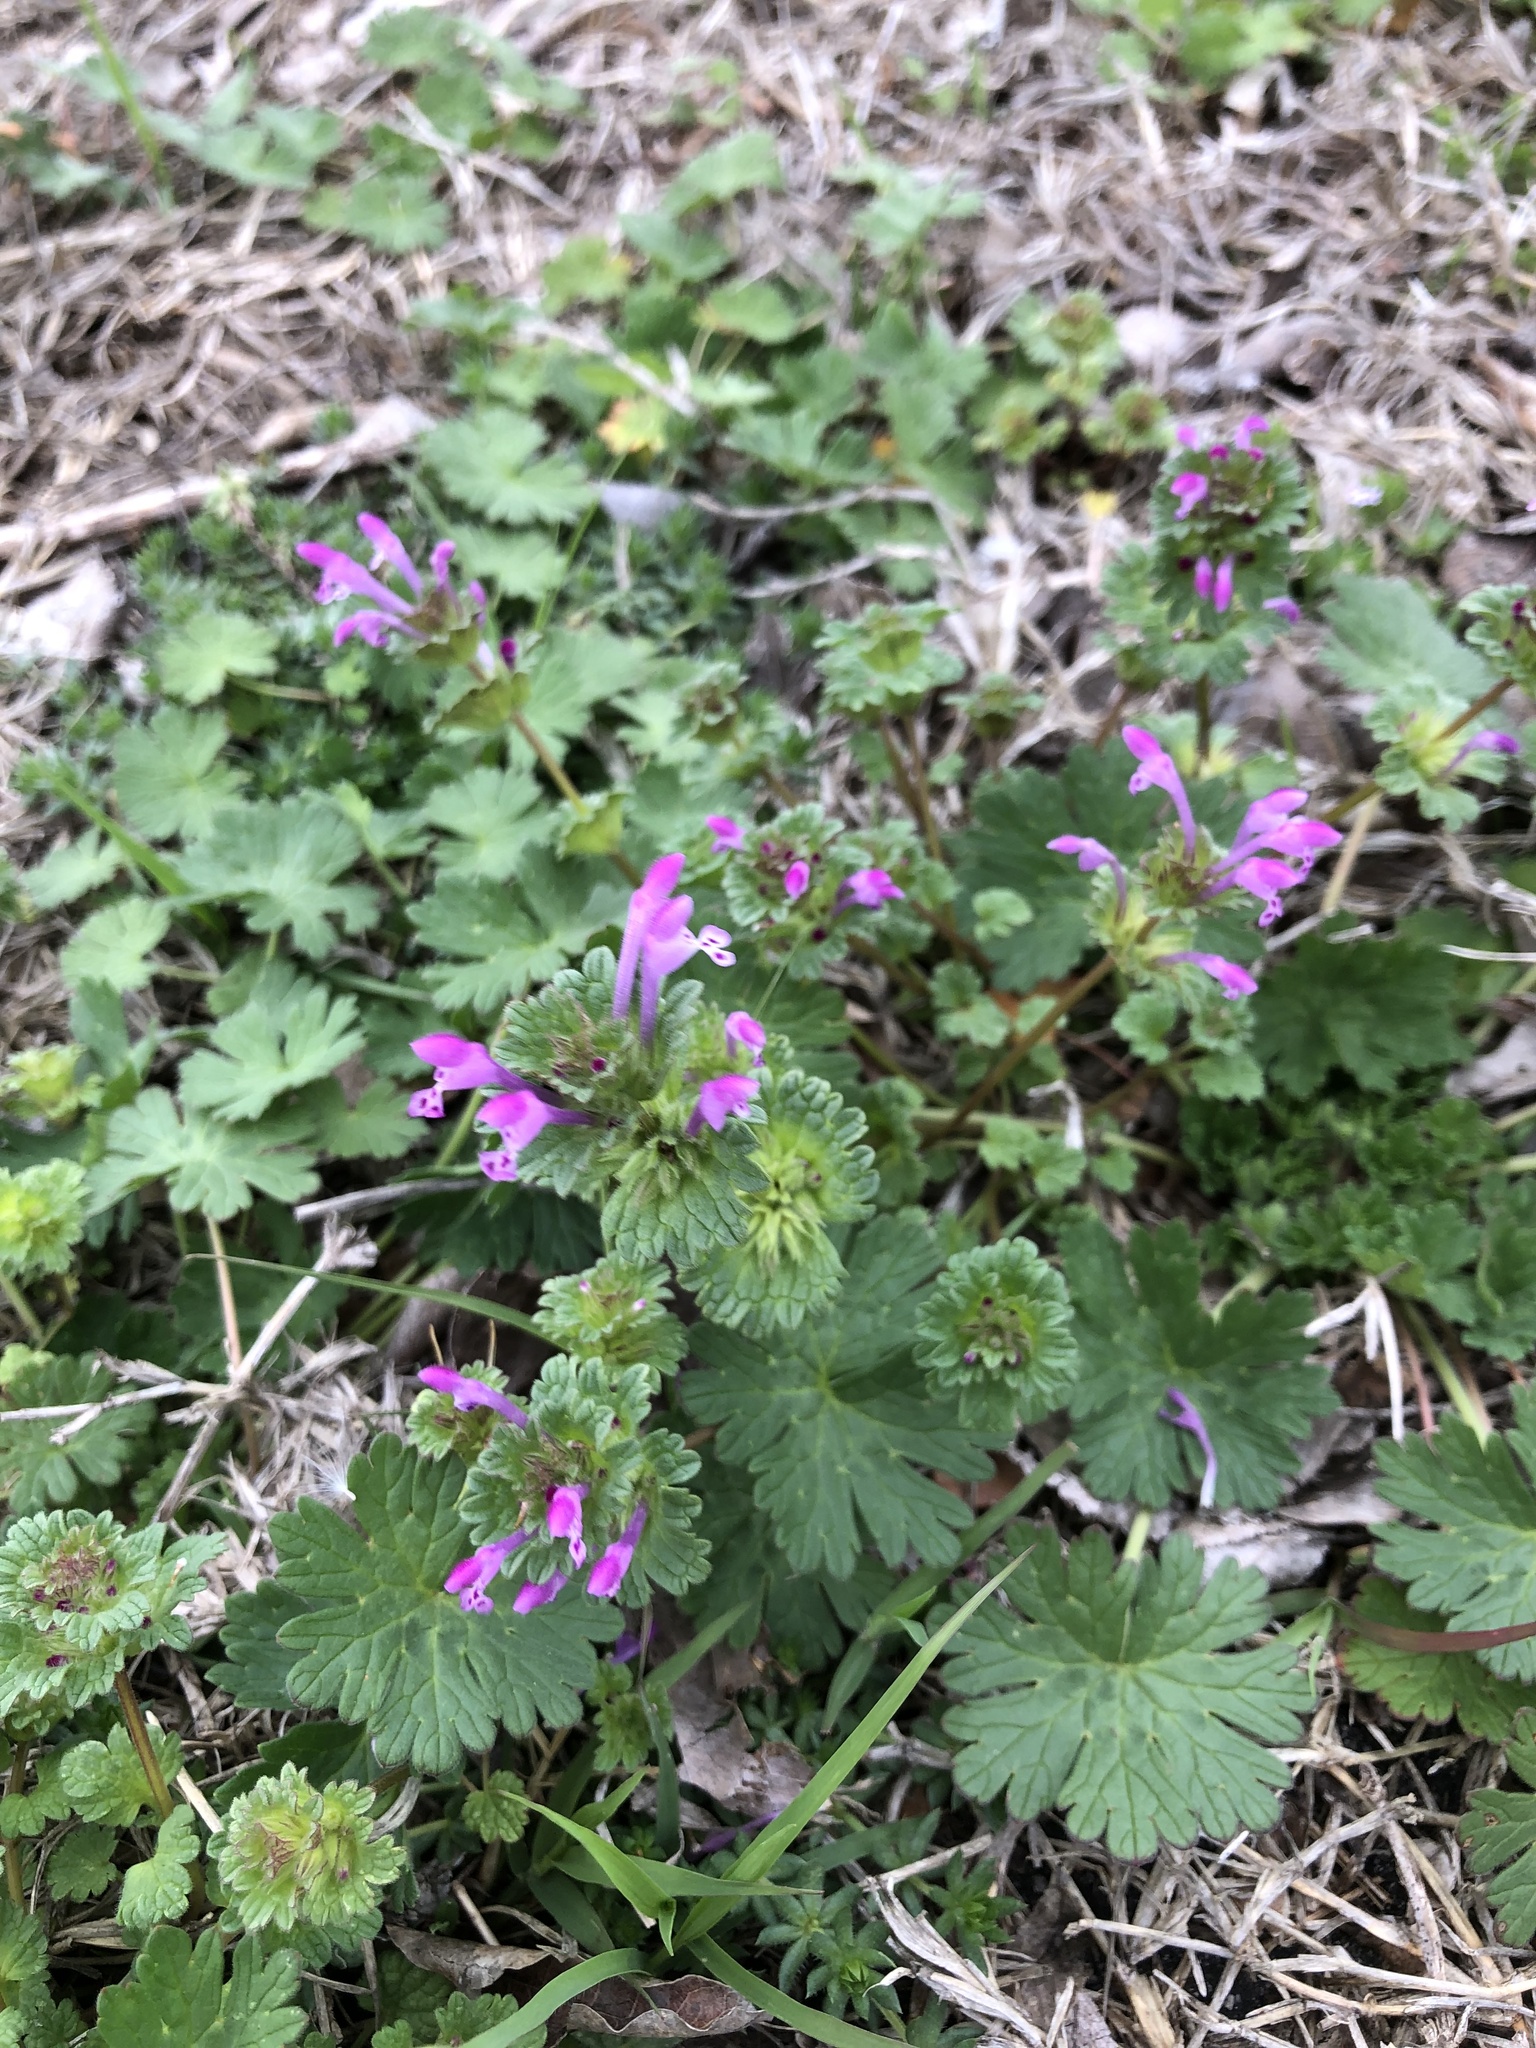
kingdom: Plantae
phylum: Tracheophyta
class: Magnoliopsida
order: Lamiales
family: Lamiaceae
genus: Lamium
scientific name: Lamium amplexicaule
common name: Henbit dead-nettle
